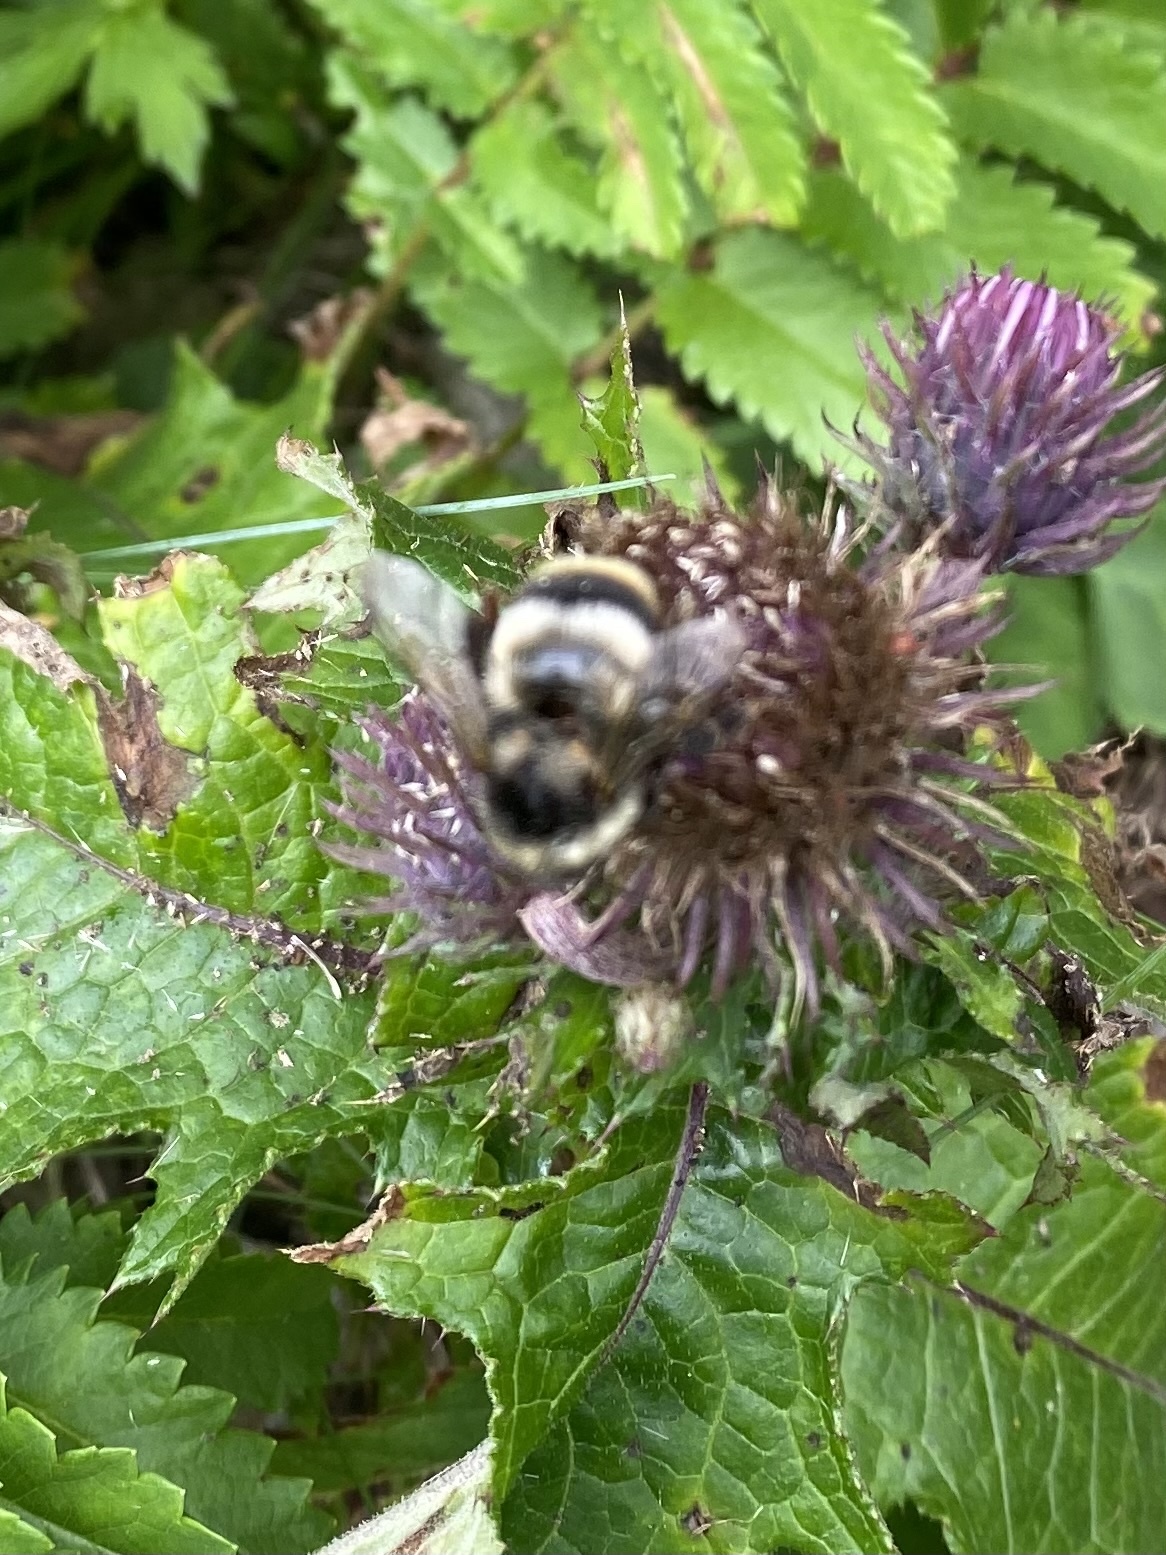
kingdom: Animalia
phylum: Arthropoda
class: Insecta
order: Hymenoptera
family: Apidae
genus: Bombus
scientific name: Bombus hypocrita
